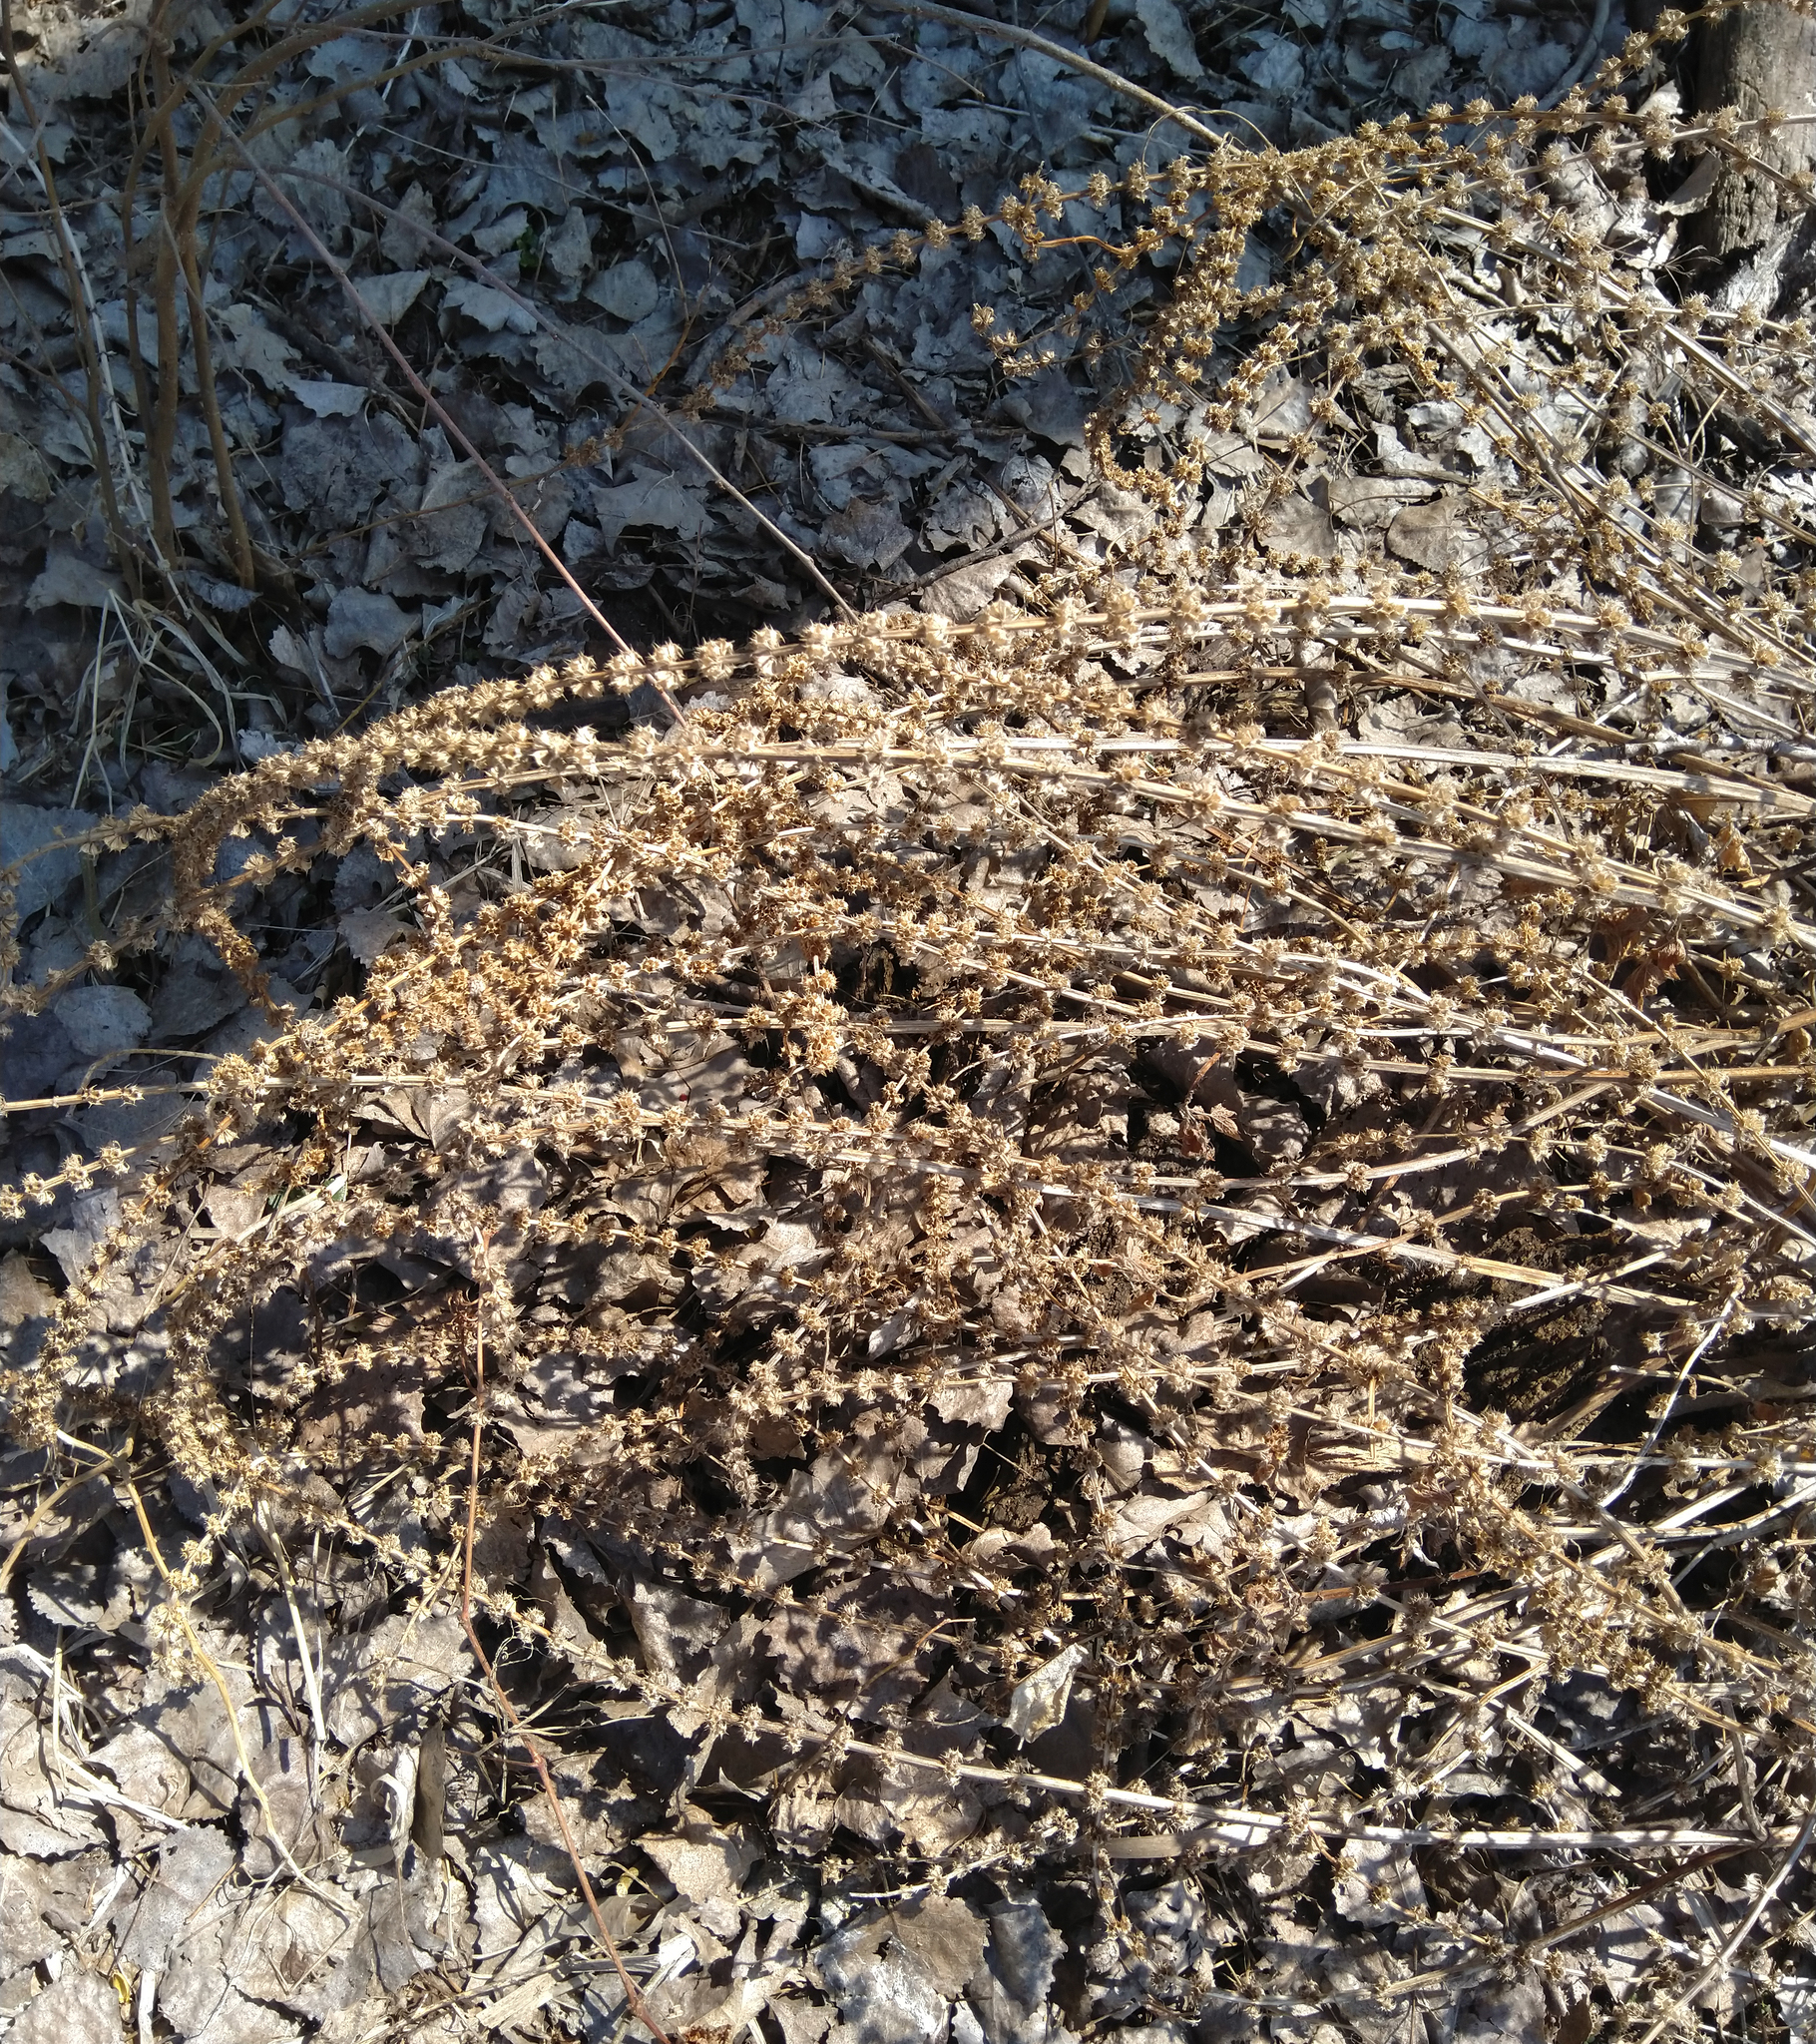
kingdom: Plantae
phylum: Tracheophyta
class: Magnoliopsida
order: Lamiales
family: Lamiaceae
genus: Leonurus
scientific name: Leonurus cardiaca
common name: Motherwort
